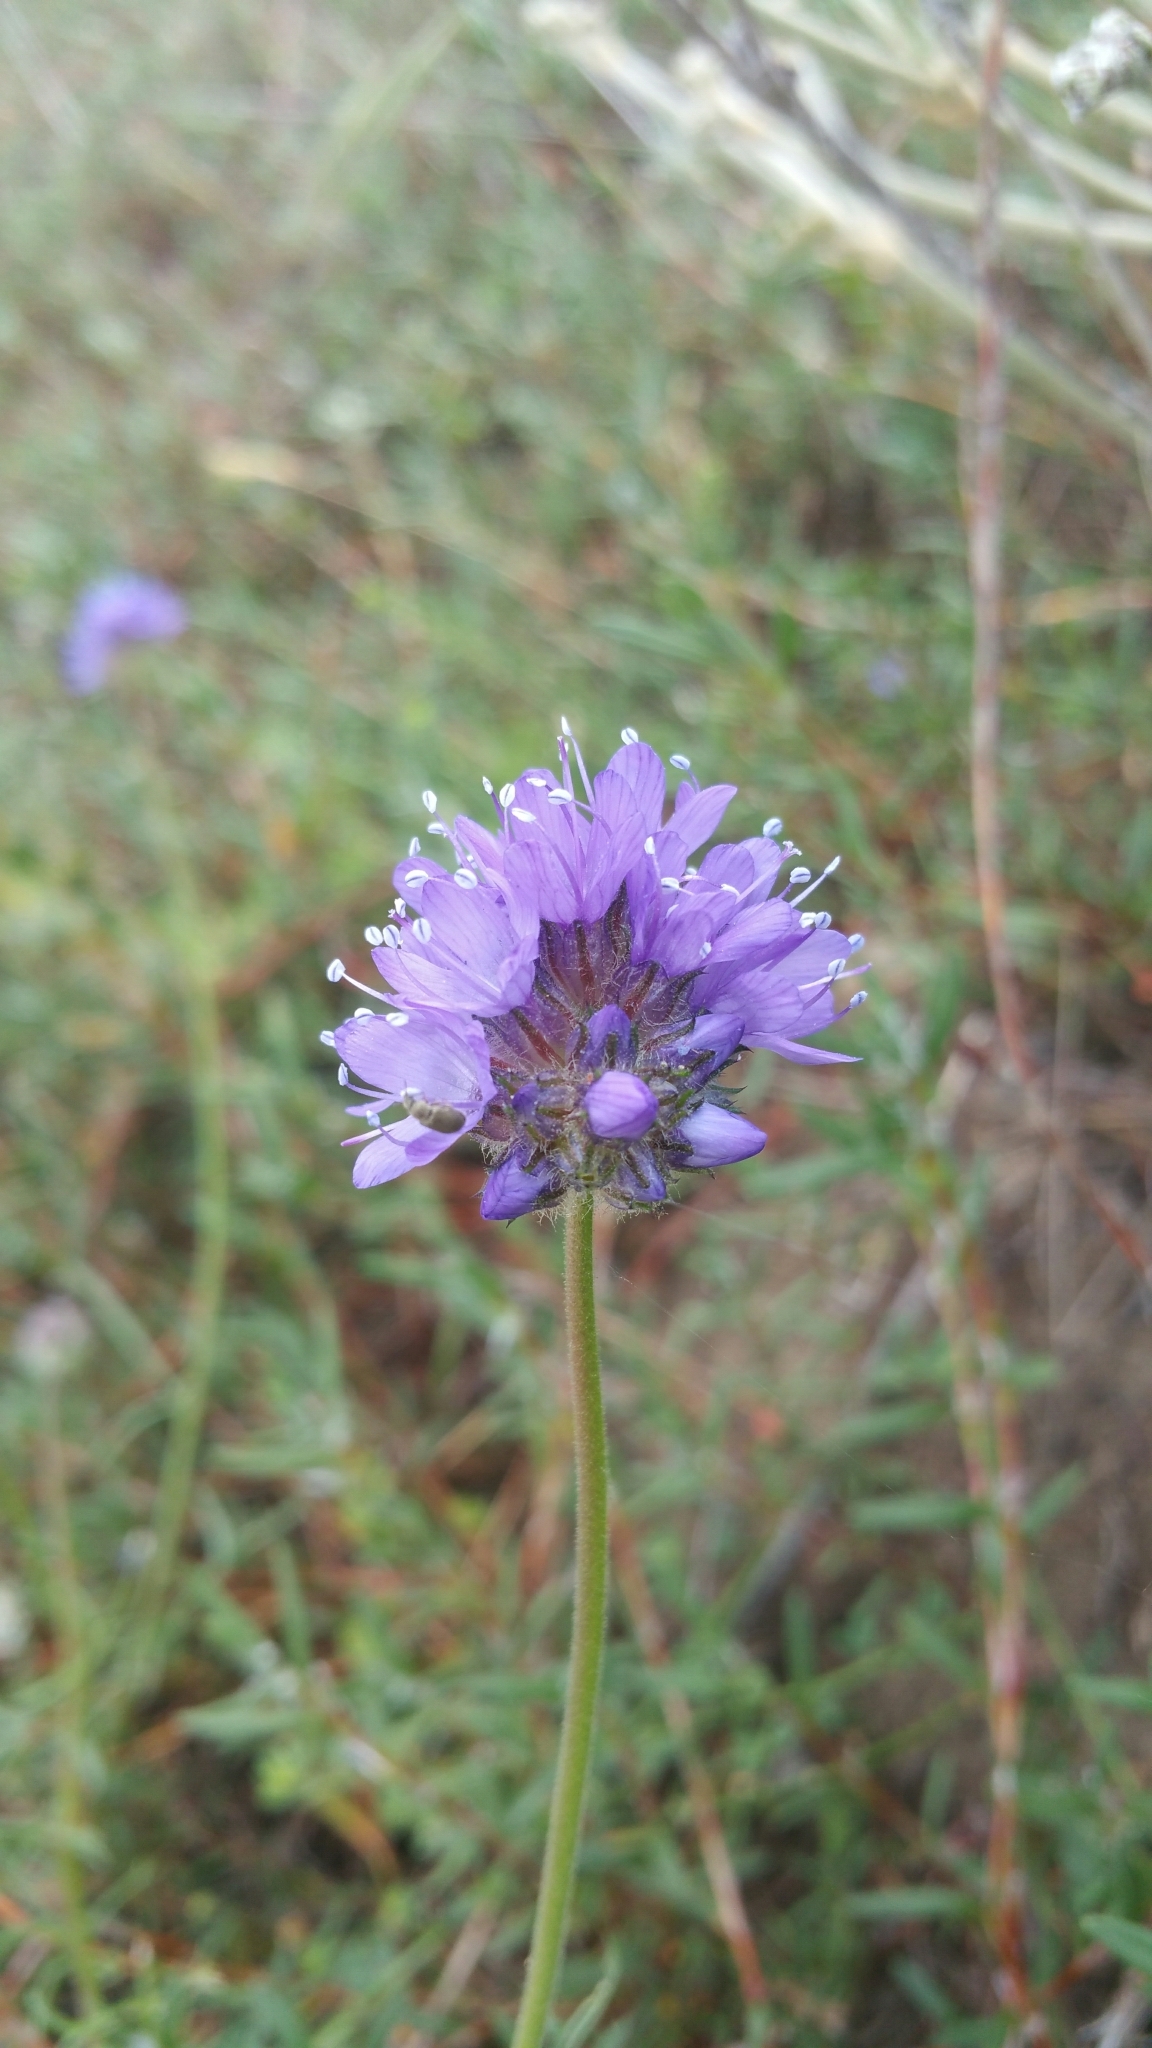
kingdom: Plantae
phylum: Tracheophyta
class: Magnoliopsida
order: Ericales
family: Polemoniaceae
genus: Gilia
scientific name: Gilia capitata
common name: Bluehead gilia
